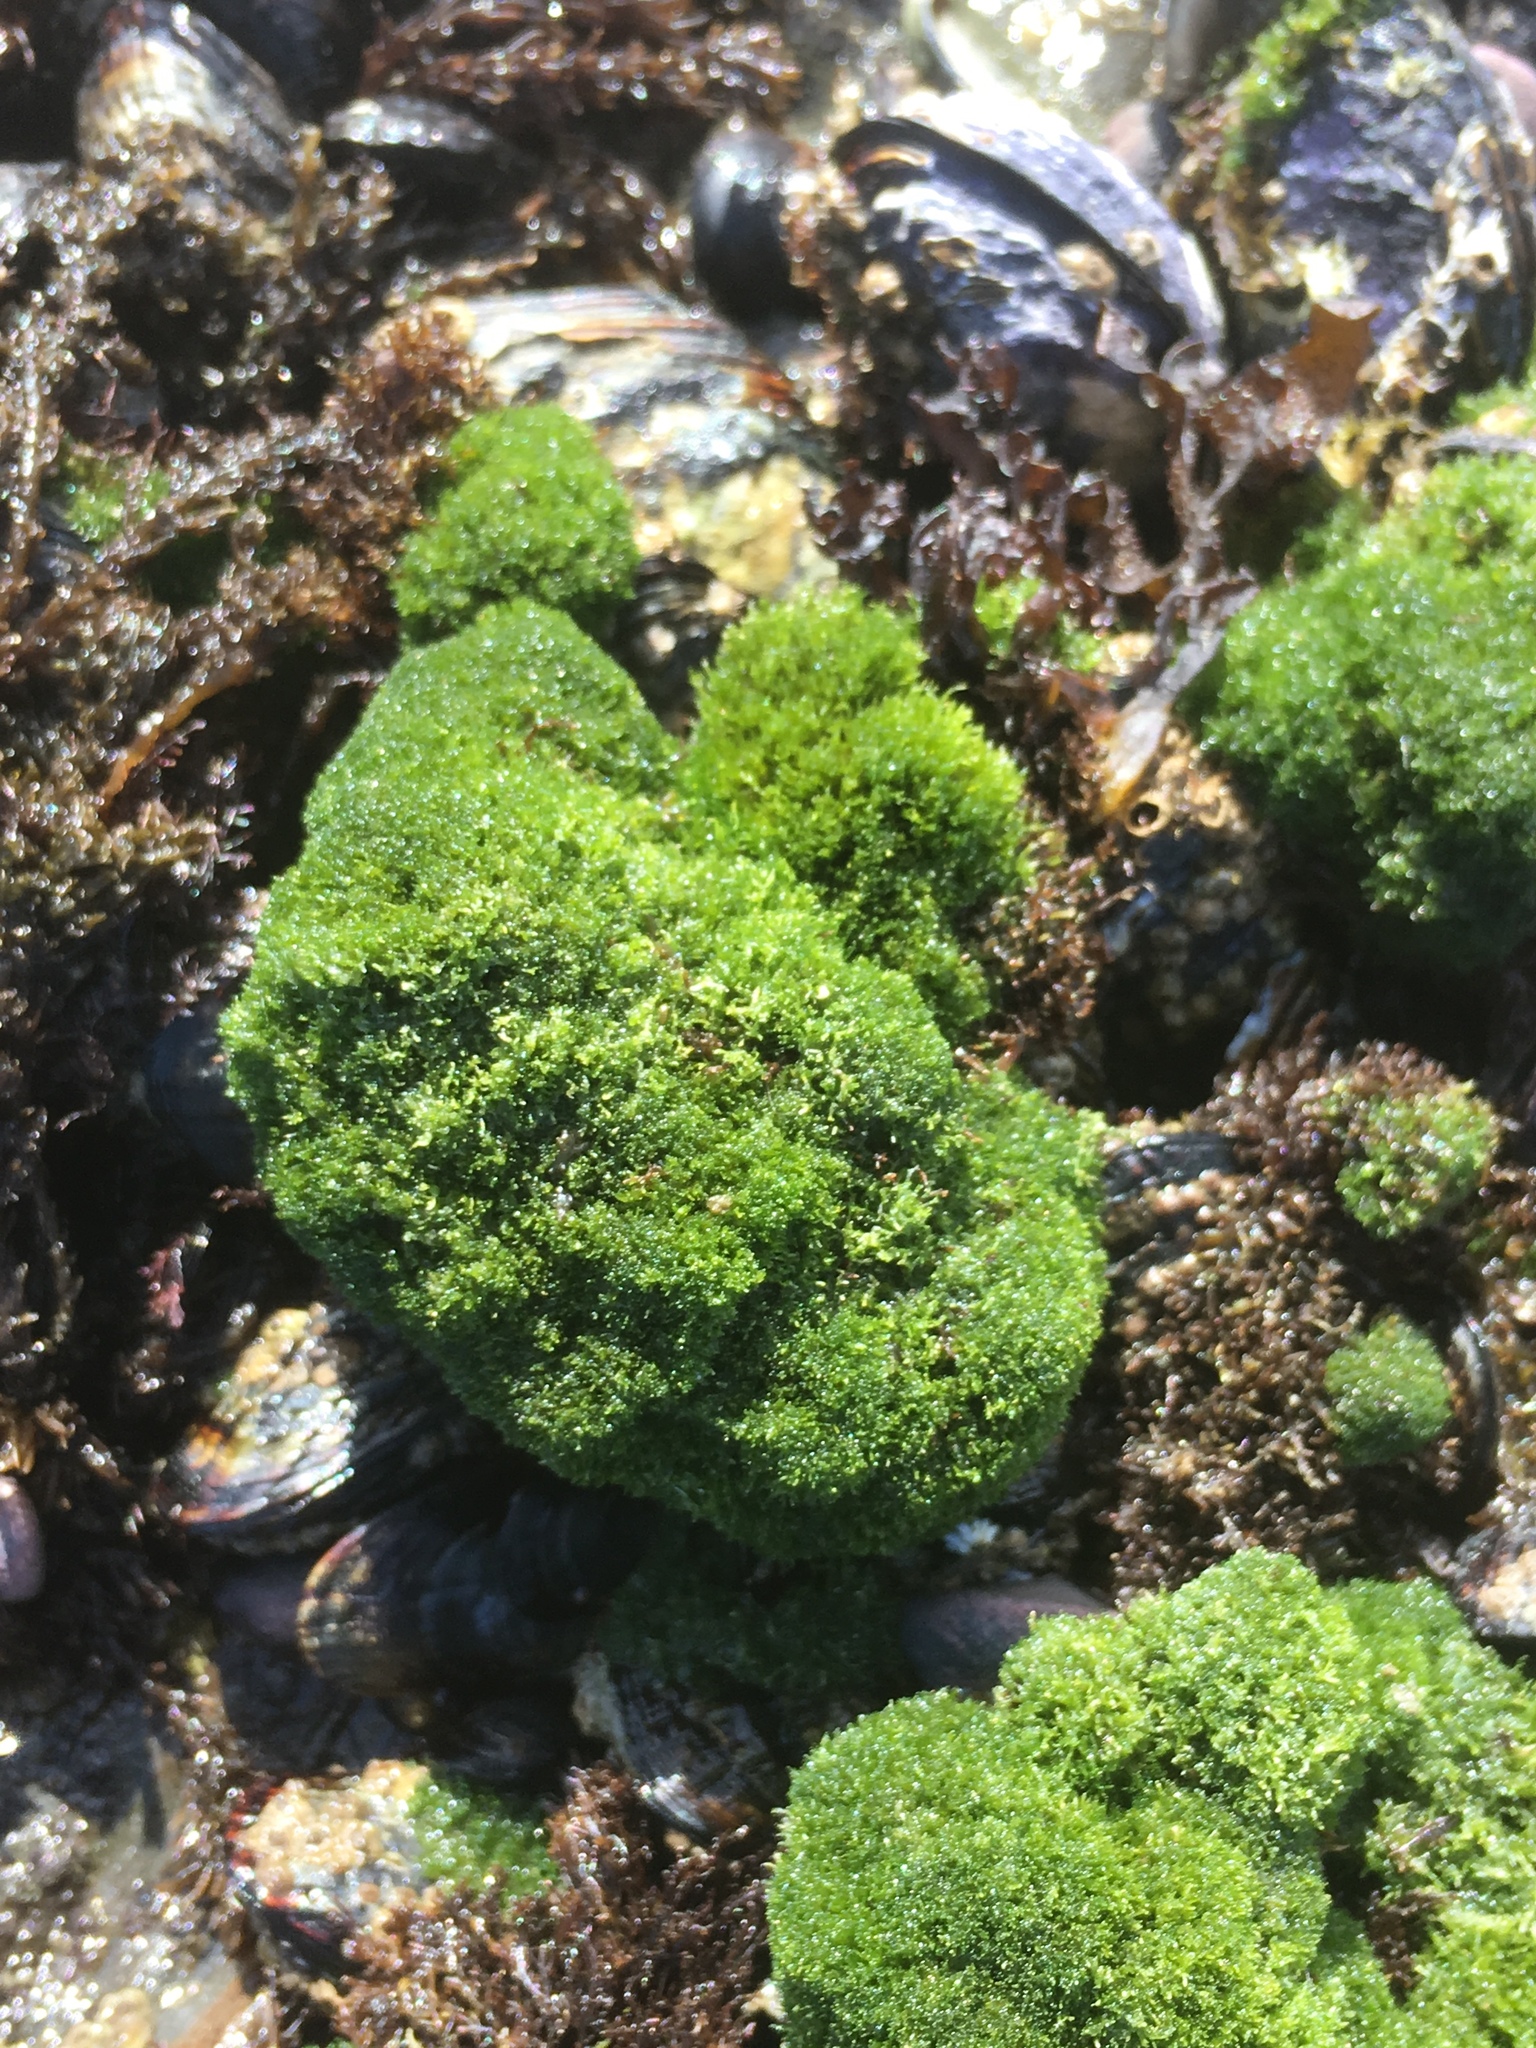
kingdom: Plantae
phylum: Chlorophyta
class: Ulvophyceae
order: Cladophorales
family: Cladophoraceae
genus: Cladophora
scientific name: Cladophora columbiana
